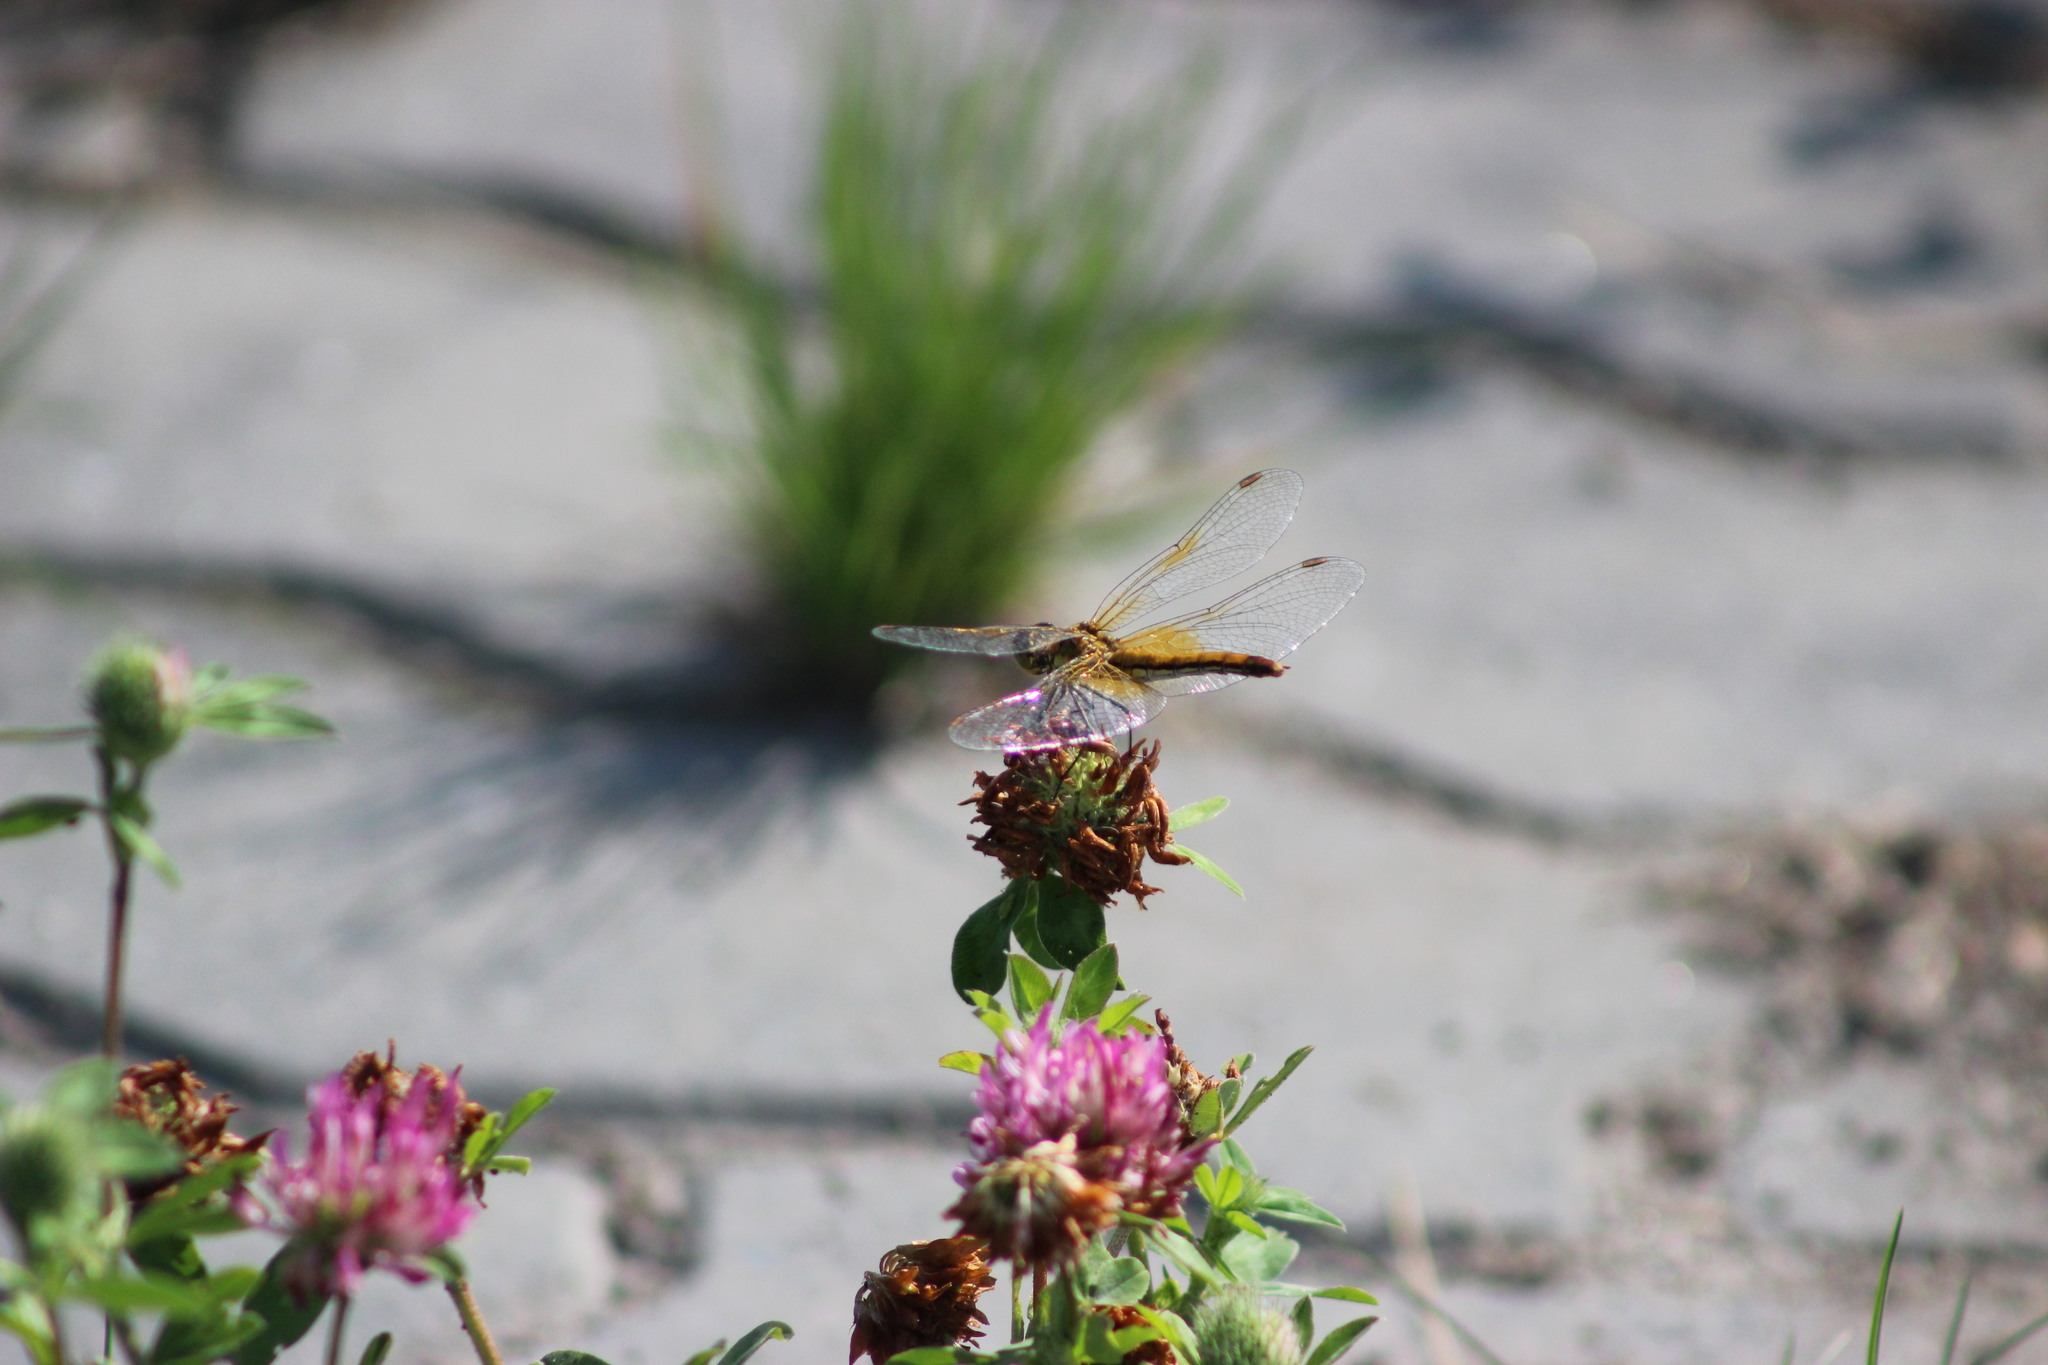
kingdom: Animalia
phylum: Arthropoda
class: Insecta
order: Odonata
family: Libellulidae
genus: Sympetrum
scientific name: Sympetrum flaveolum
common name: Yellow-winged darter
